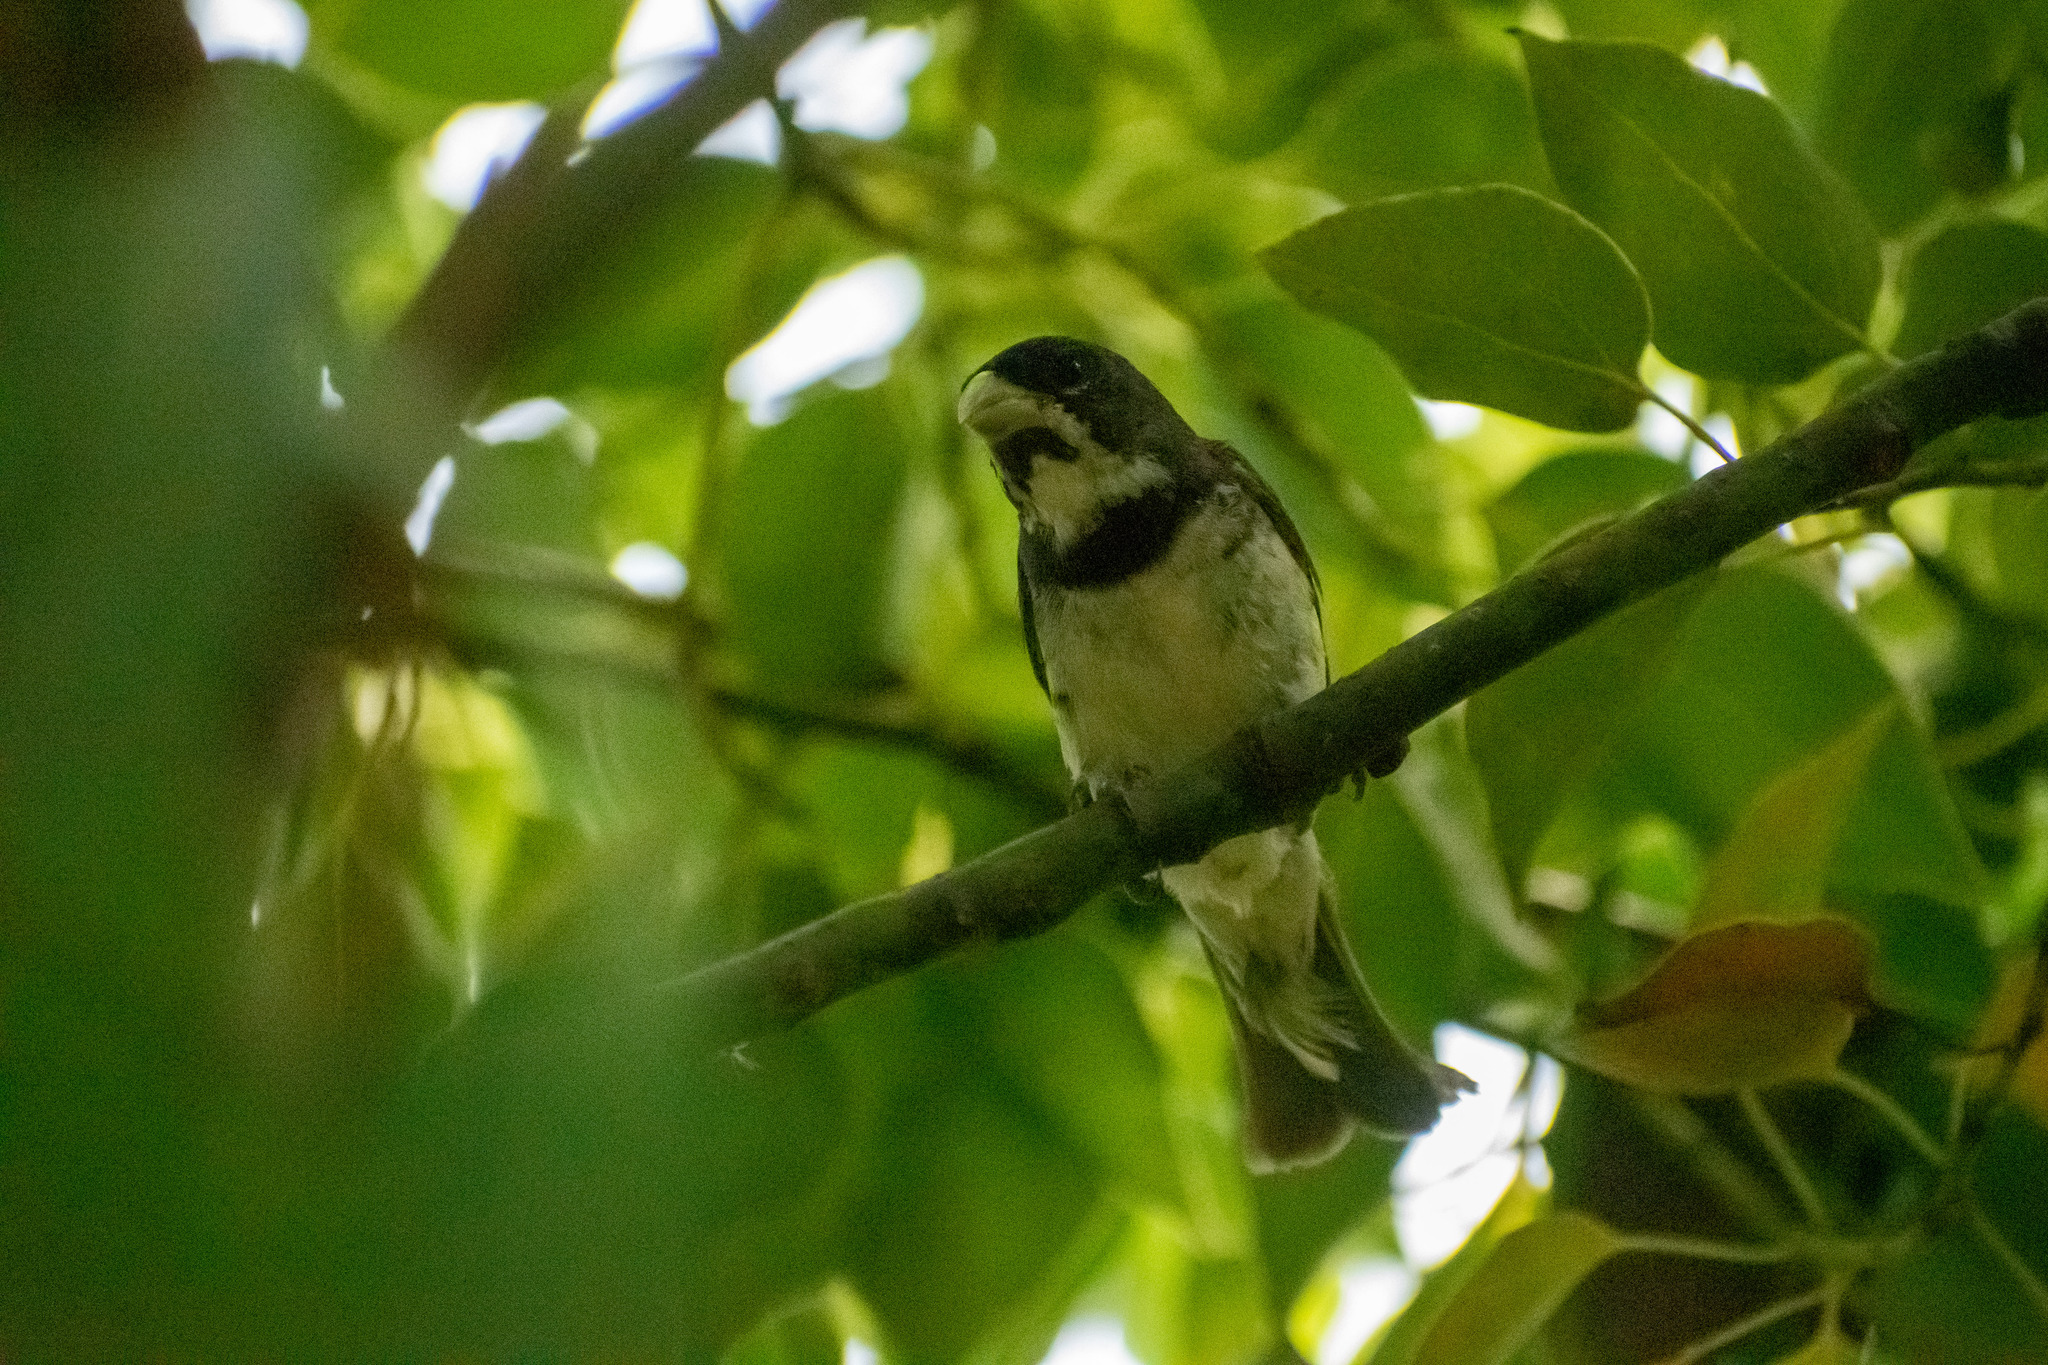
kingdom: Animalia
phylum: Chordata
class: Aves
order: Passeriformes
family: Thraupidae
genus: Sporophila
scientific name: Sporophila caerulescens
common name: Double-collared seedeater
